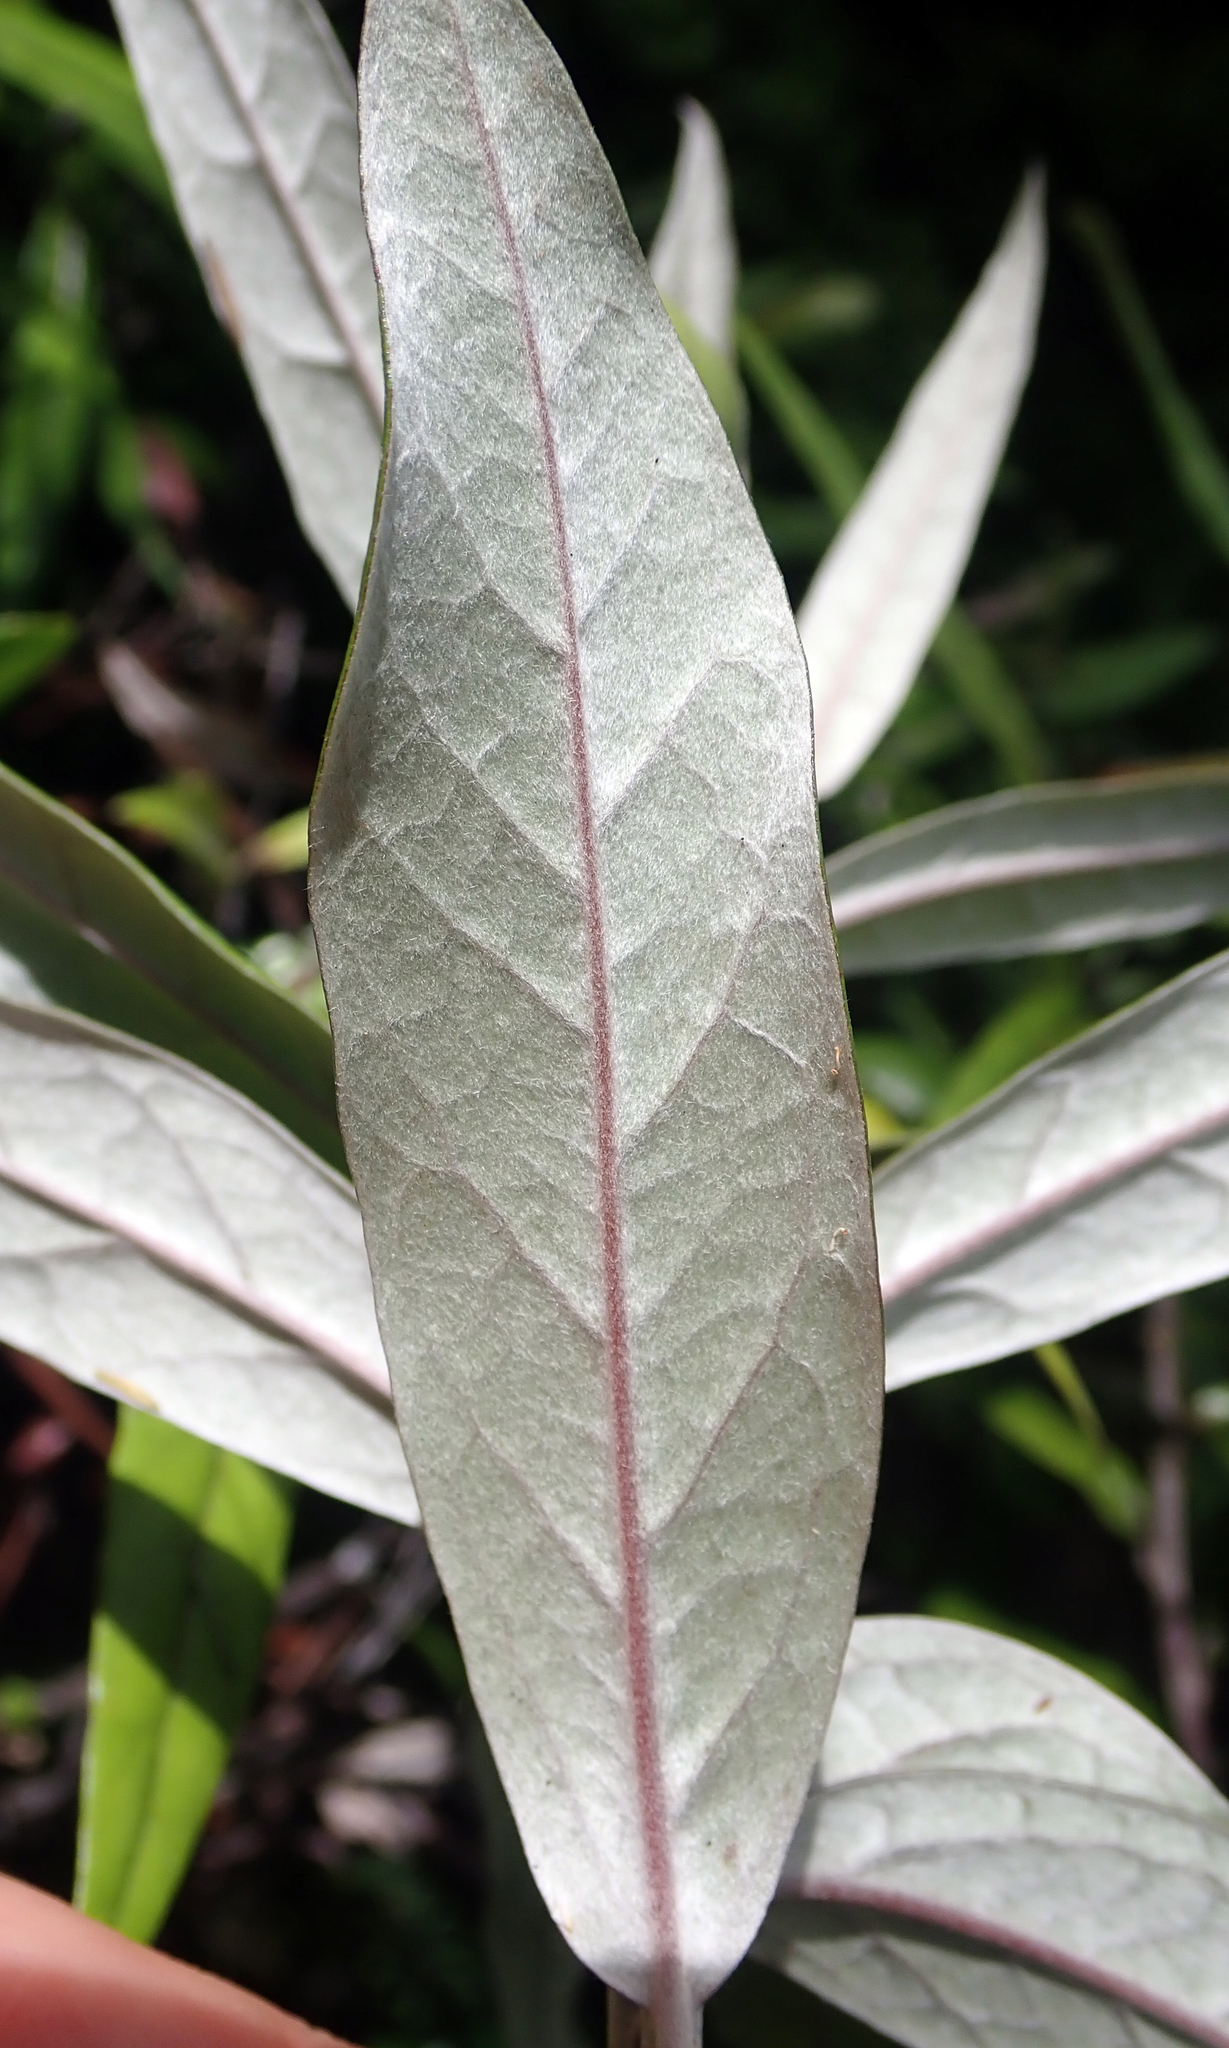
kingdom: Plantae
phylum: Tracheophyta
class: Magnoliopsida
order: Asterales
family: Argophyllaceae
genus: Corokia
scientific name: Corokia buddleioides
